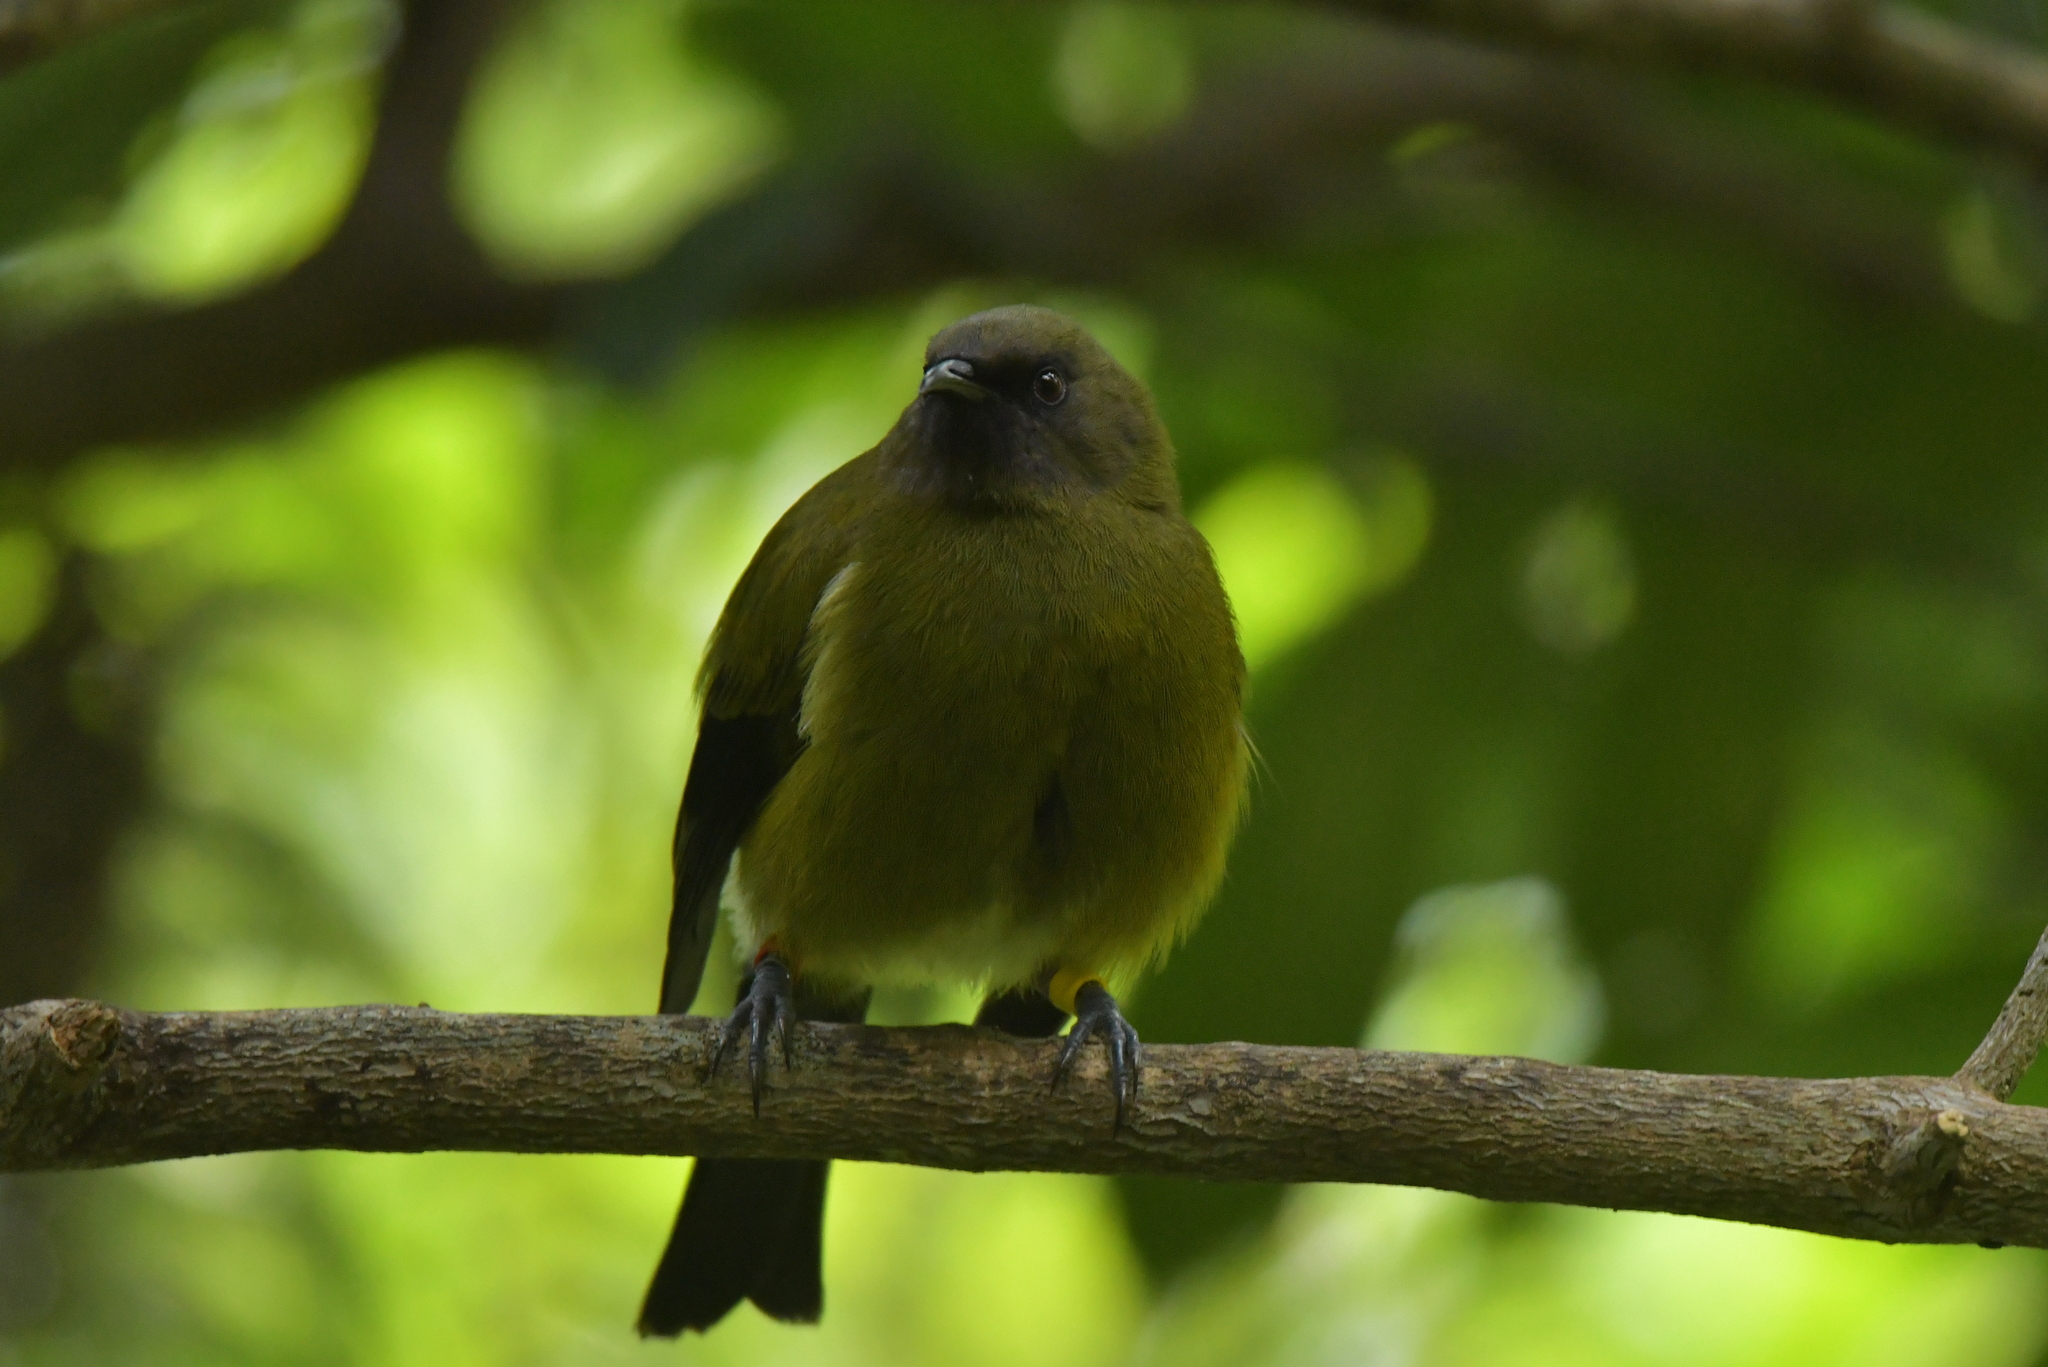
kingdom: Animalia
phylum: Chordata
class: Aves
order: Passeriformes
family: Meliphagidae
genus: Anthornis
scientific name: Anthornis melanura
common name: New zealand bellbird
